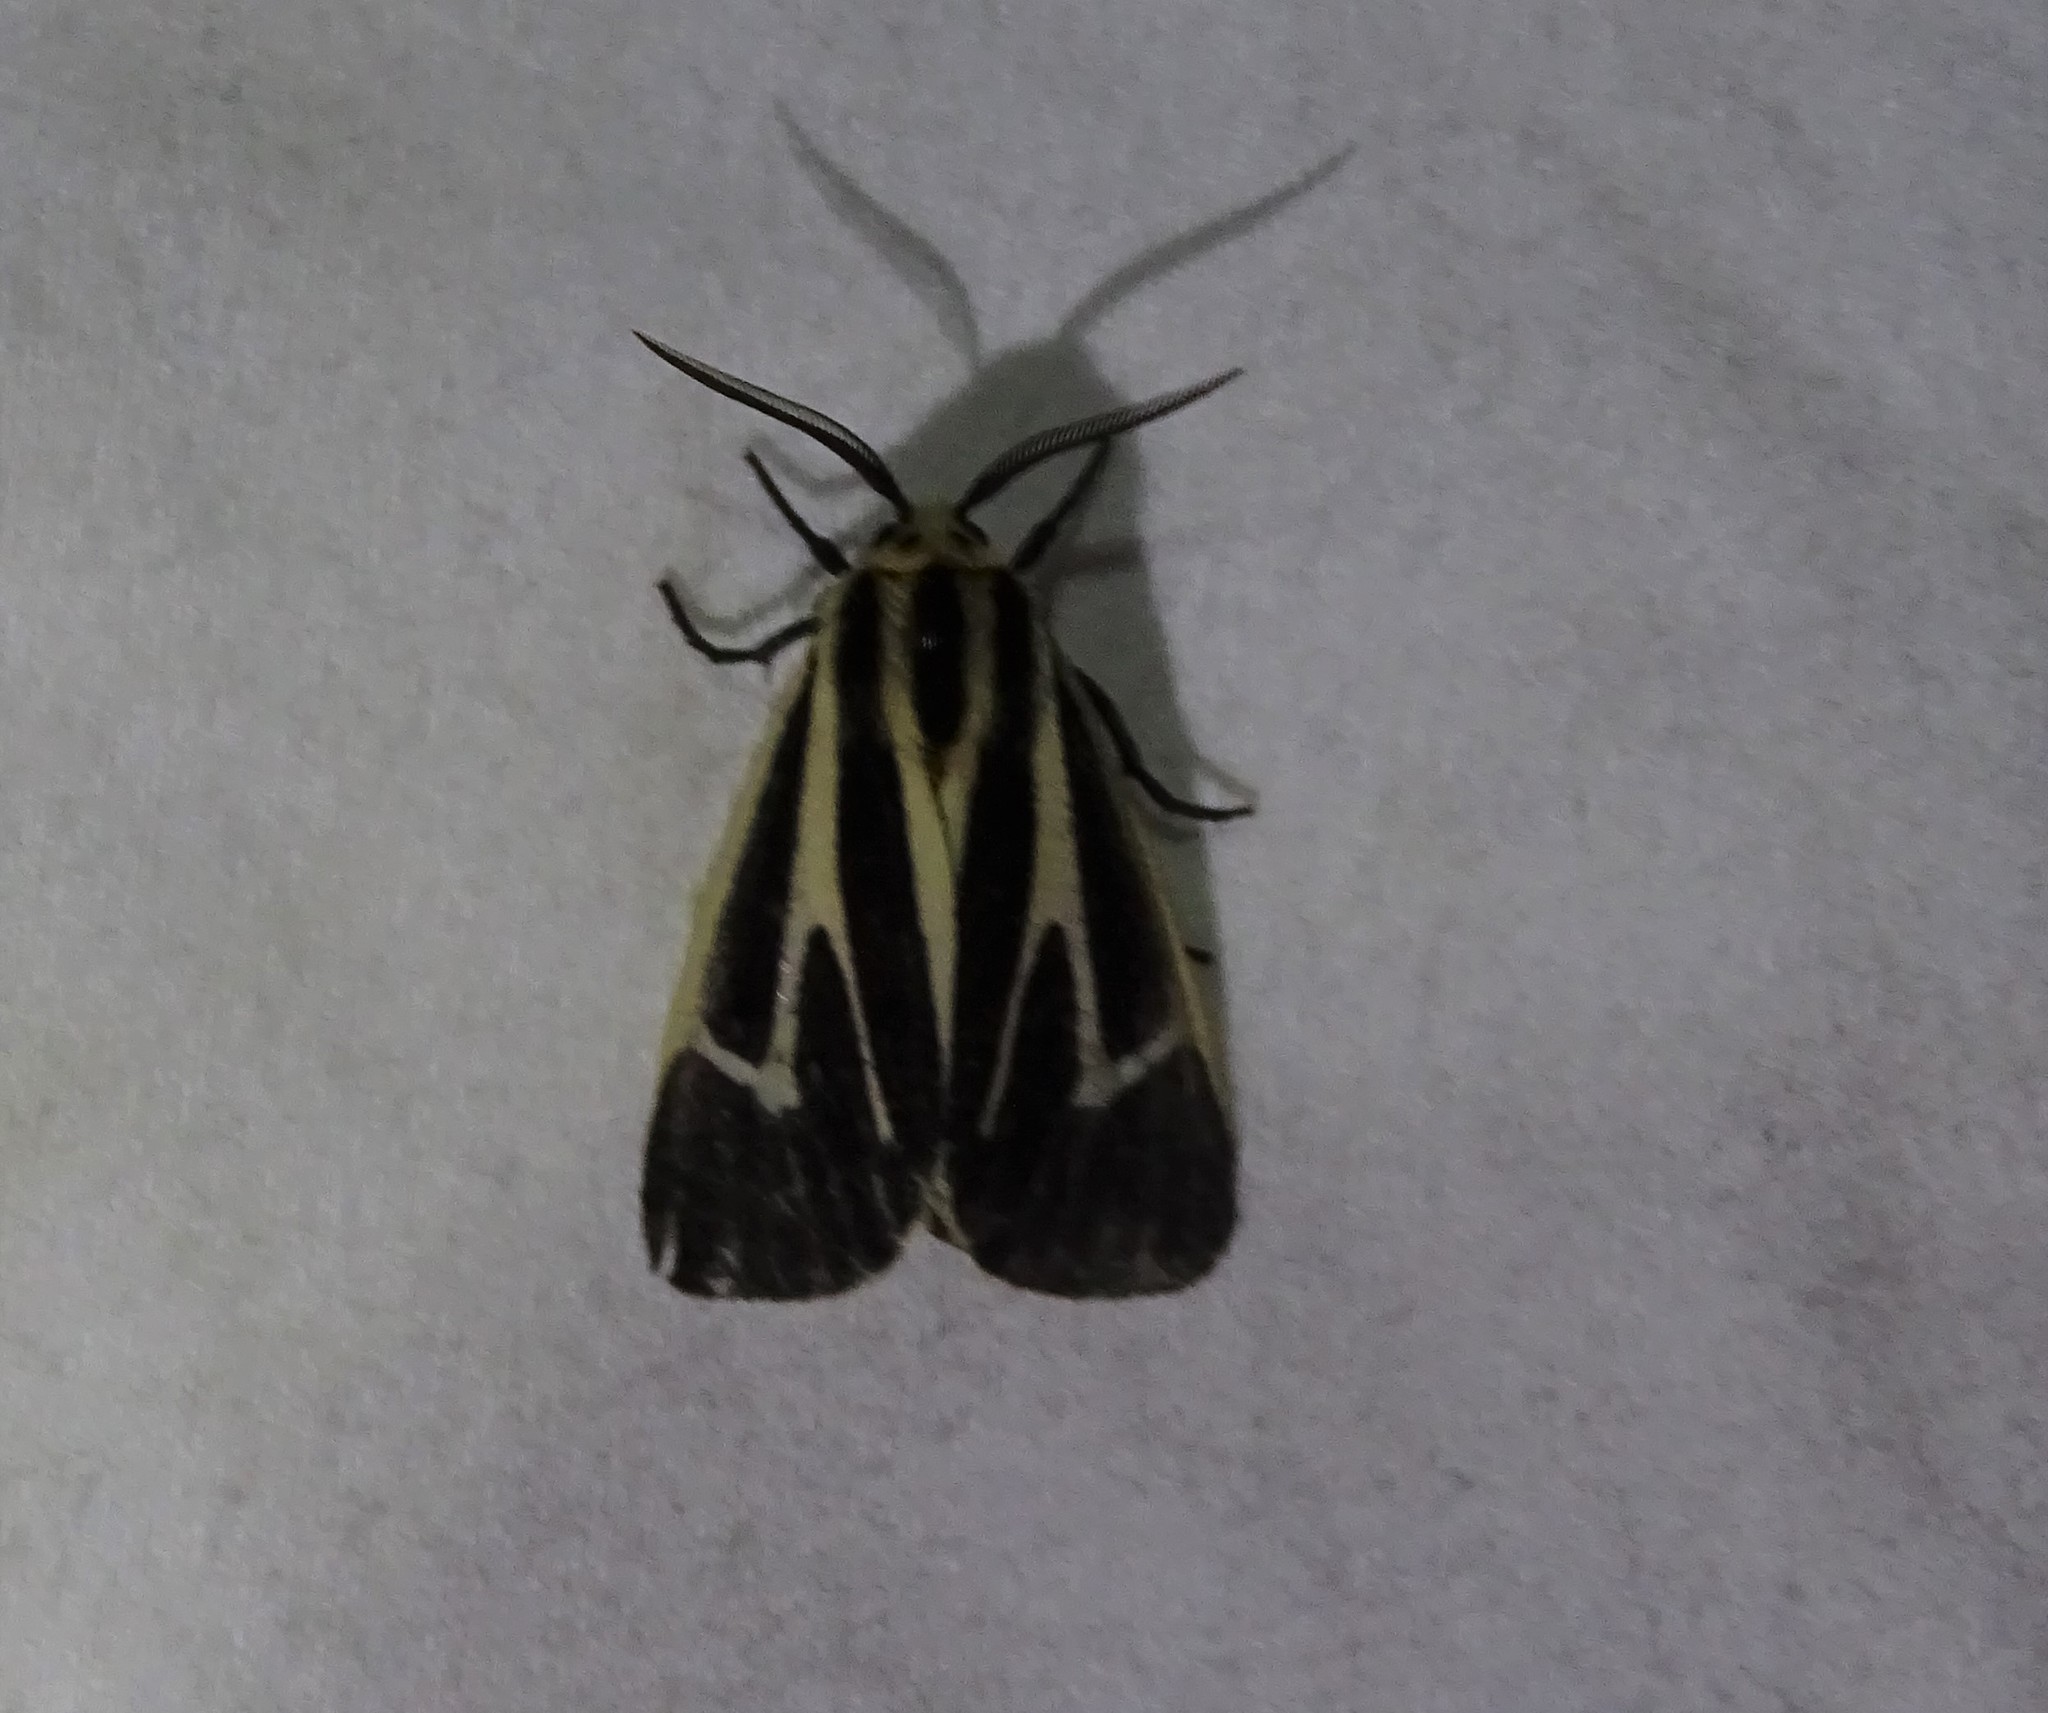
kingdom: Animalia
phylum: Arthropoda
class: Insecta
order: Lepidoptera
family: Erebidae
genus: Apantesis
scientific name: Apantesis vittata
